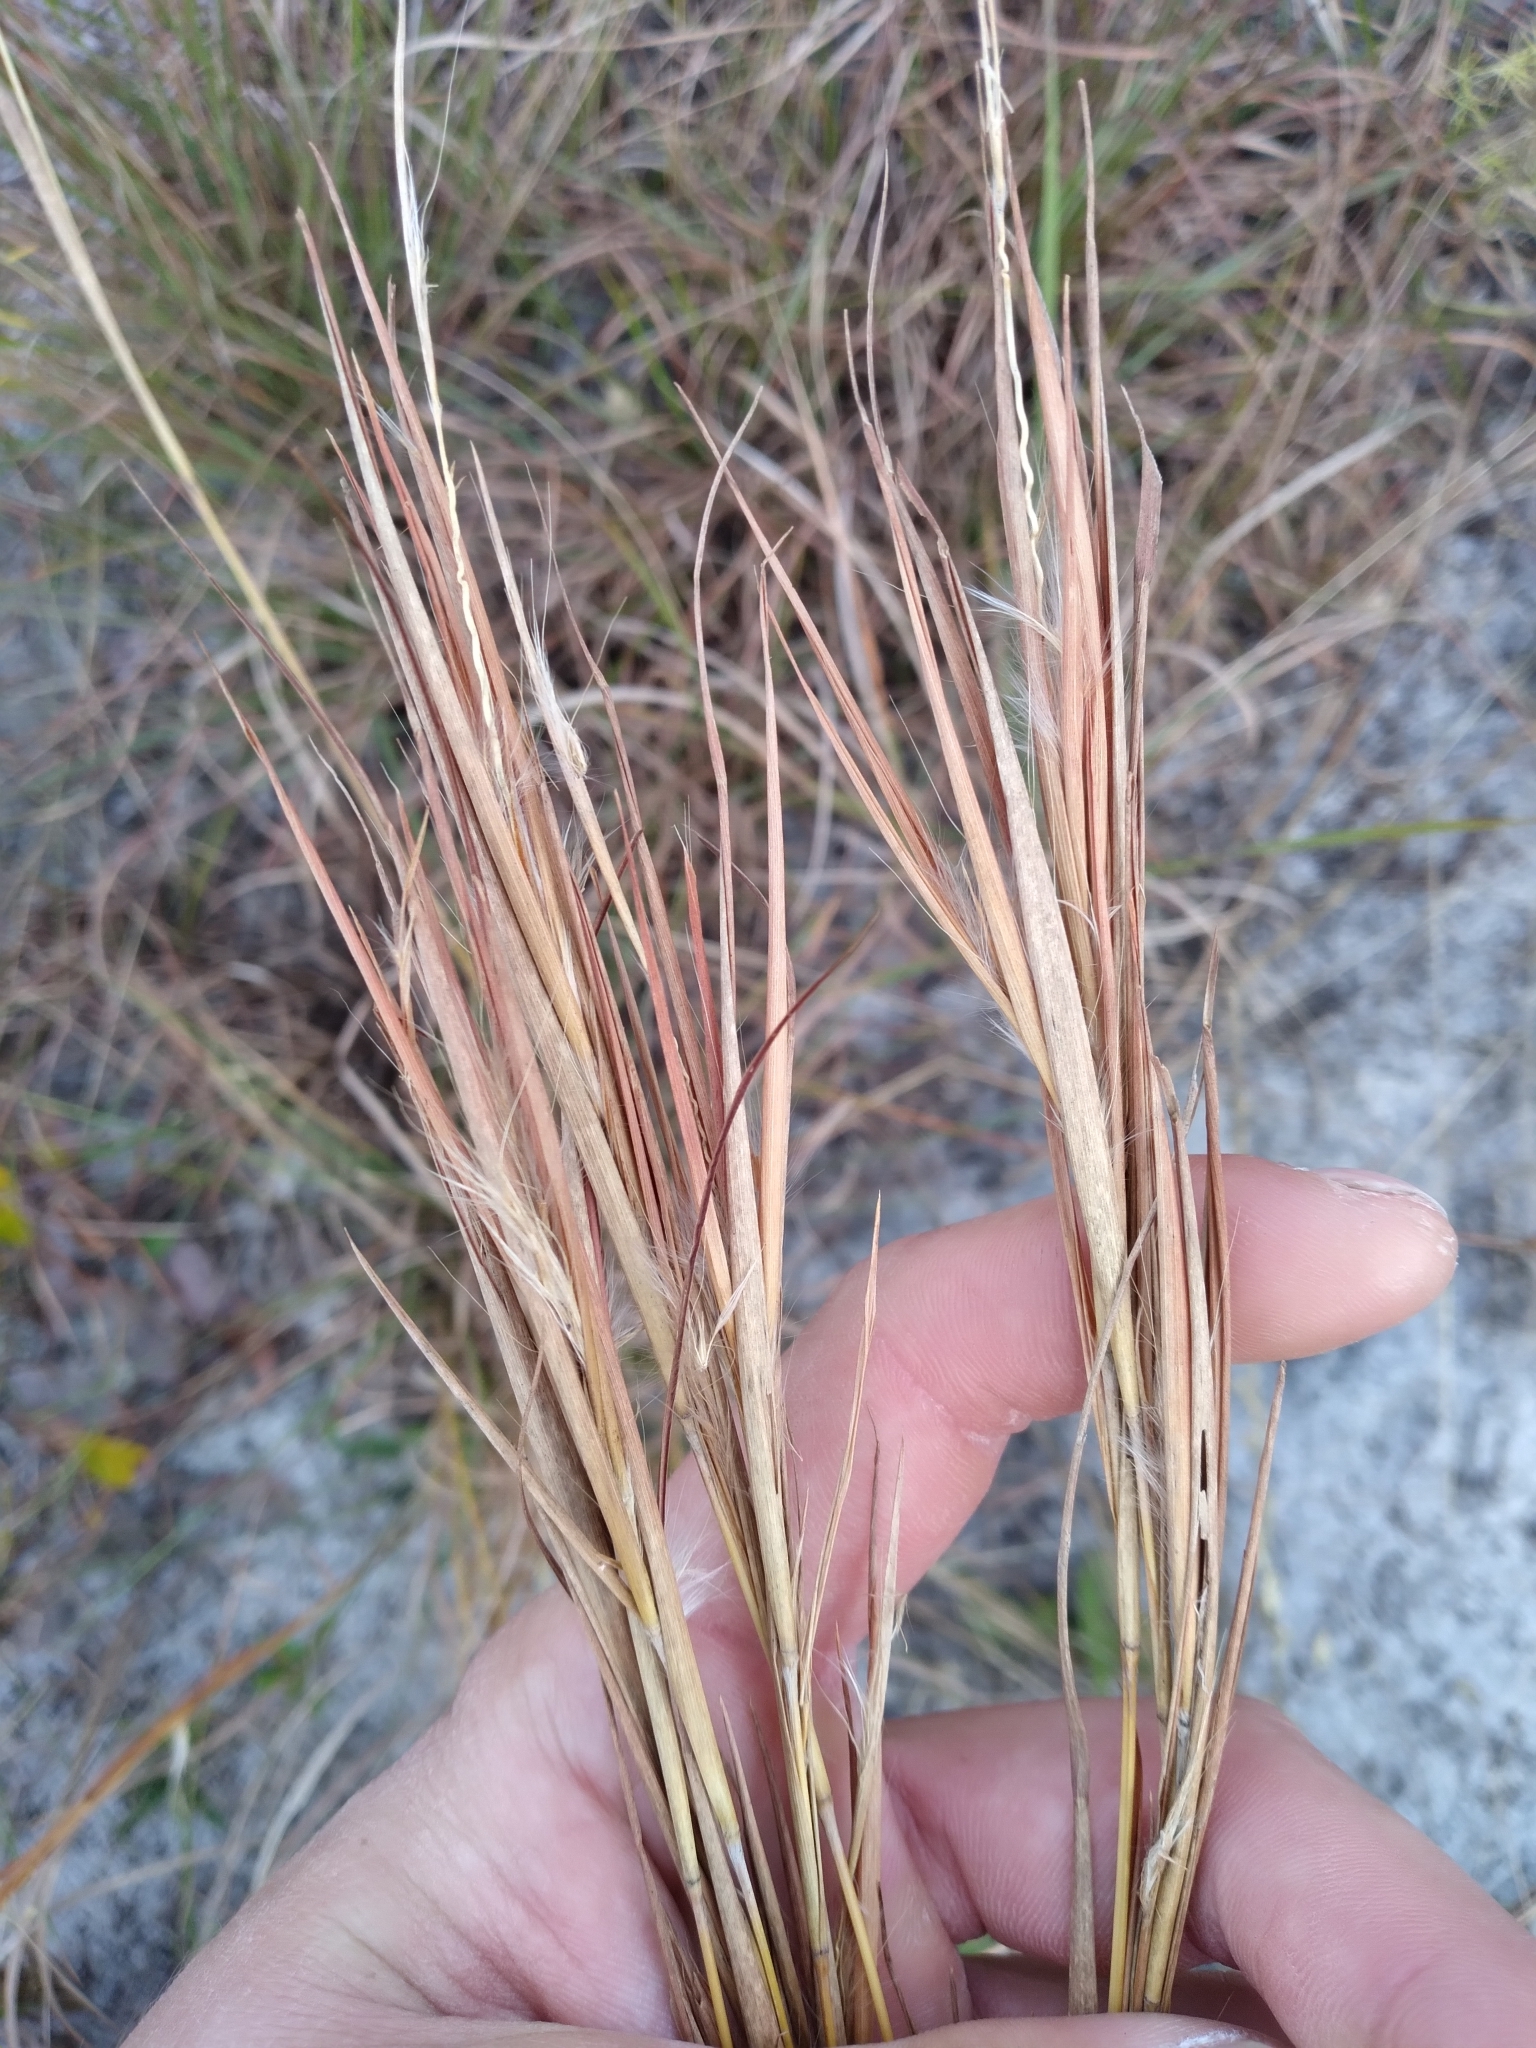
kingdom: Plantae
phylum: Tracheophyta
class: Liliopsida
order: Poales
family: Poaceae
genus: Andropogon
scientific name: Andropogon gyrans
